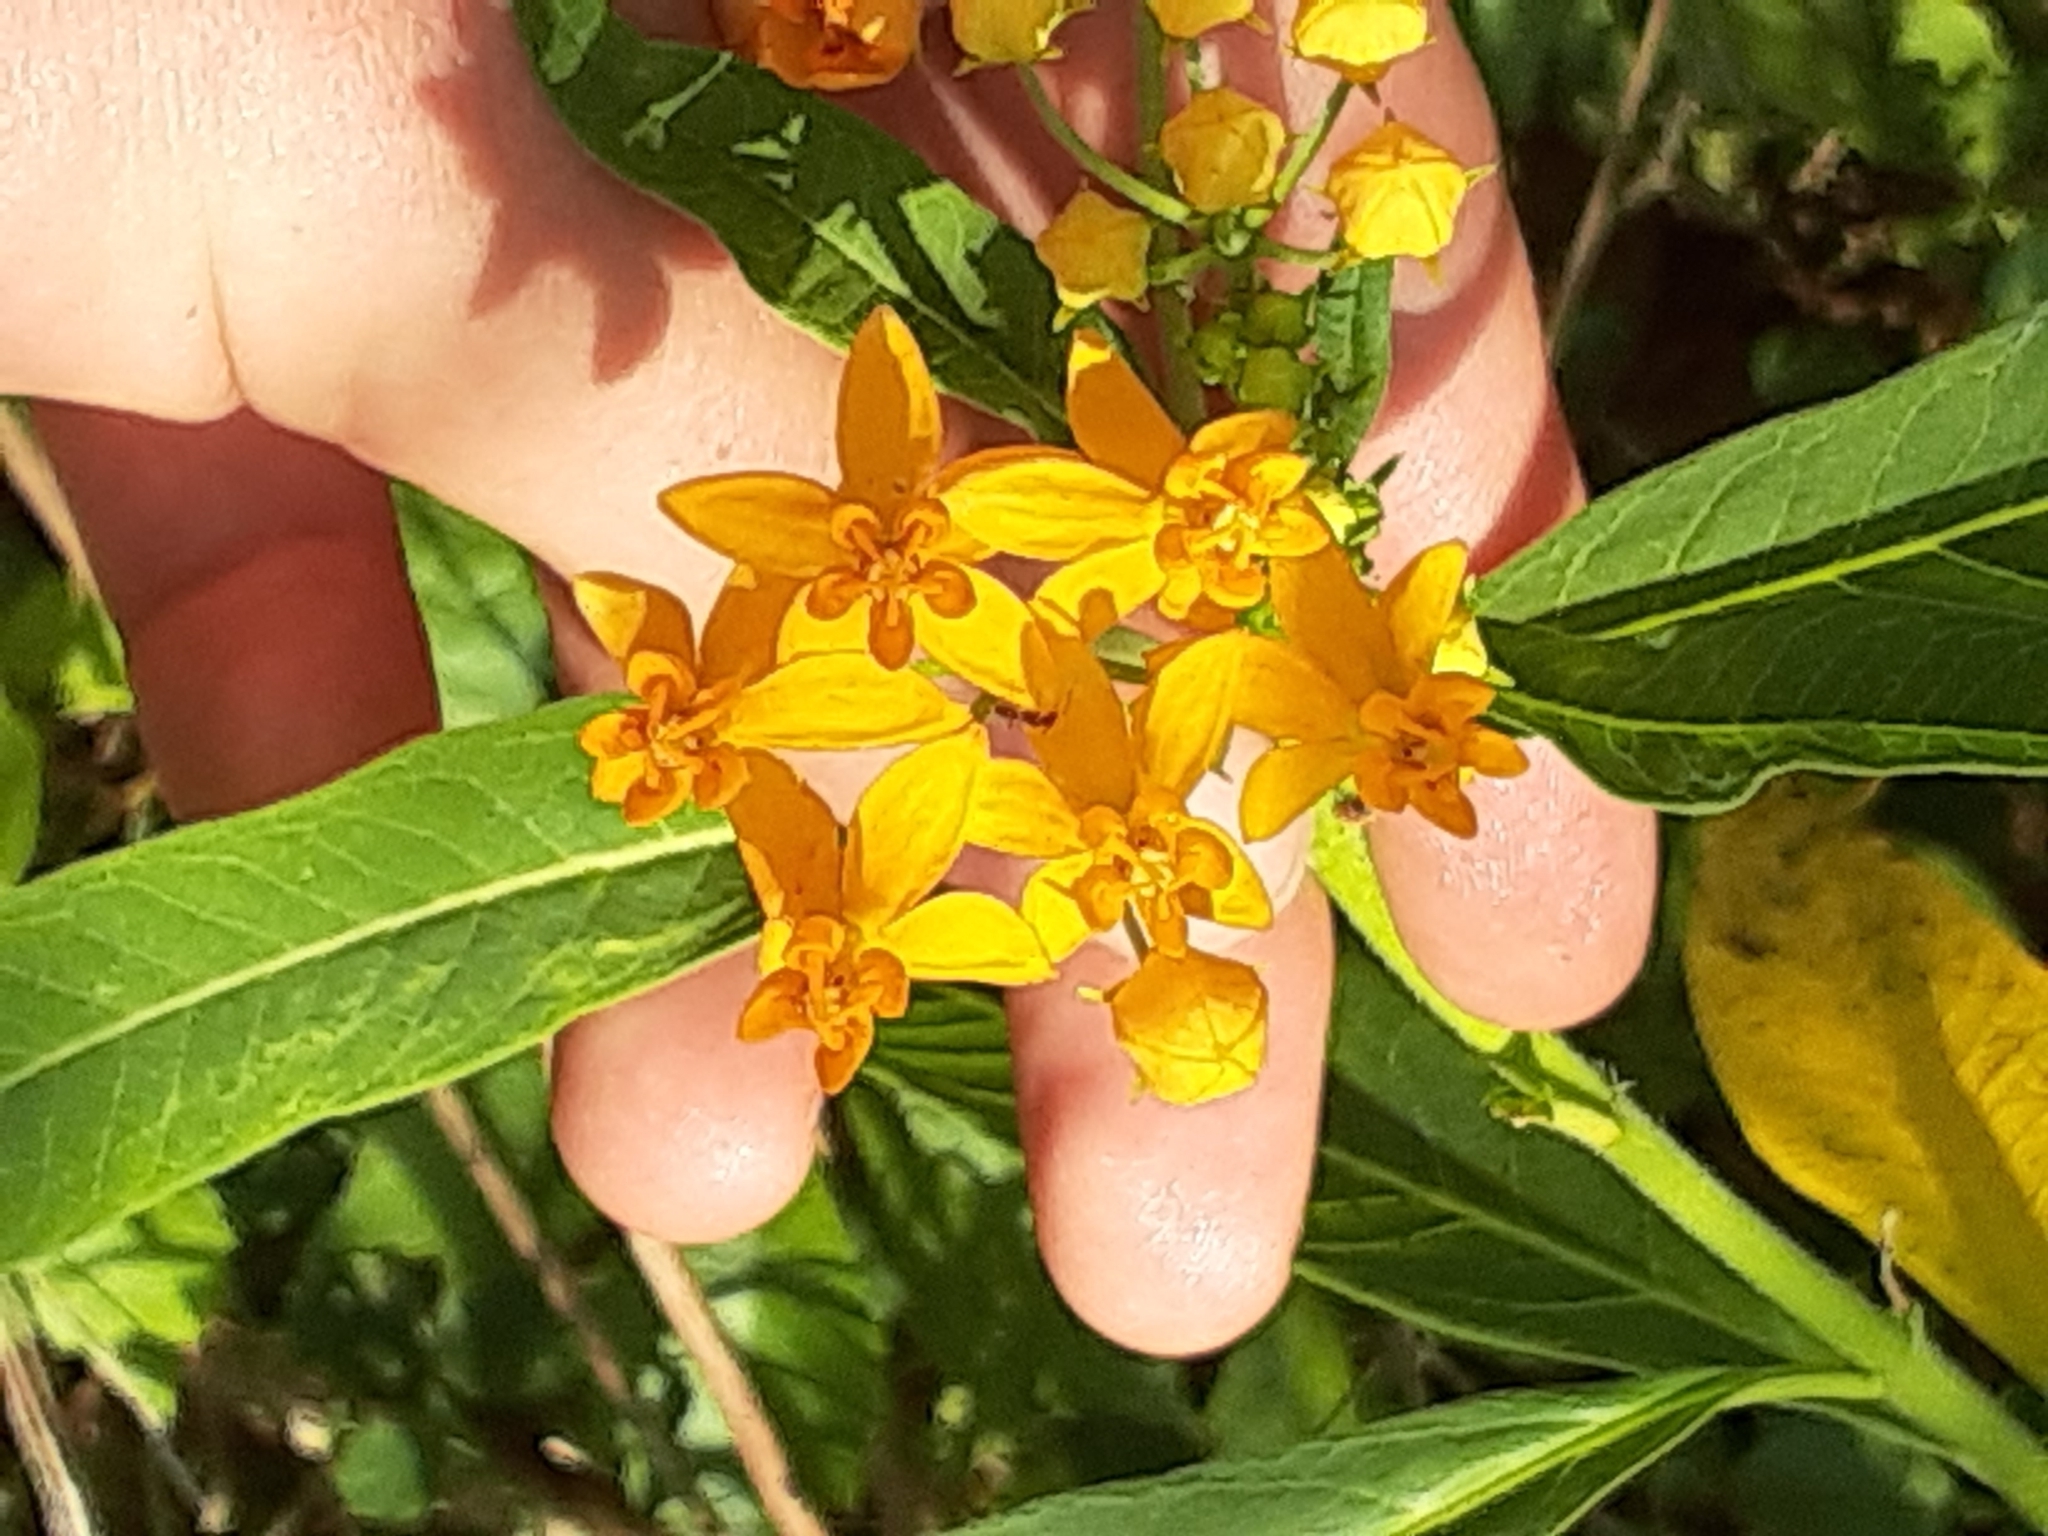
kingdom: Plantae
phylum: Tracheophyta
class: Magnoliopsida
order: Gentianales
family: Apocynaceae
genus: Asclepias
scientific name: Asclepias curassavica
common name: Bloodflower
